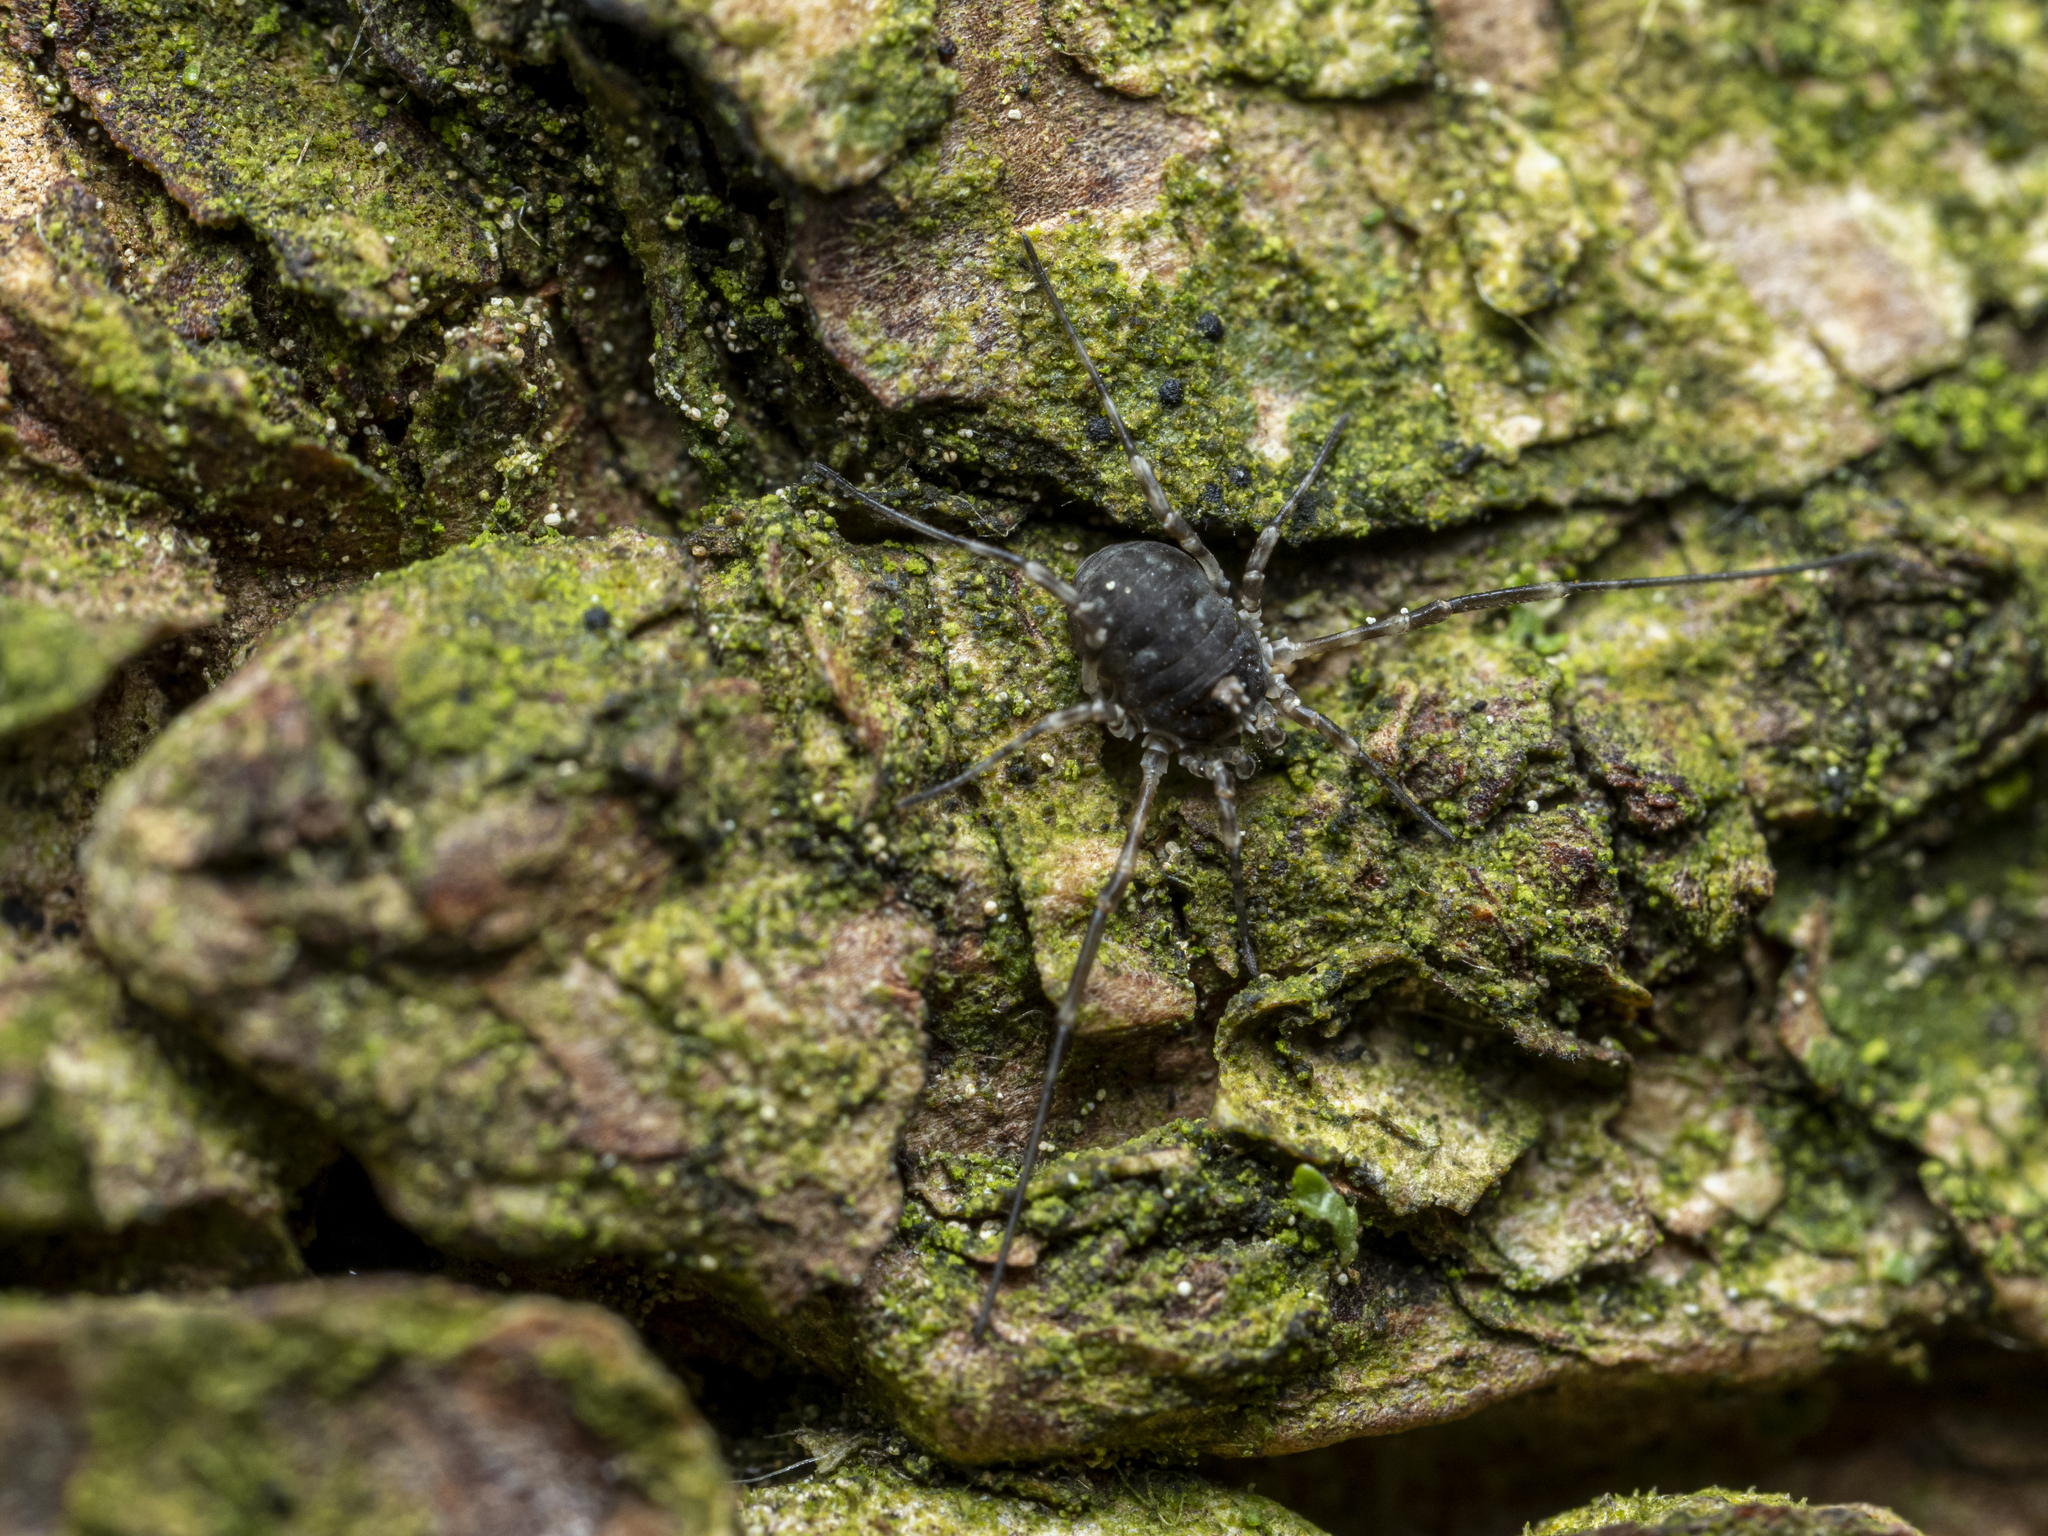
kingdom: Animalia
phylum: Arthropoda
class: Arachnida
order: Opiliones
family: Phalangiidae
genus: Lacinius
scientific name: Lacinius dentiger
